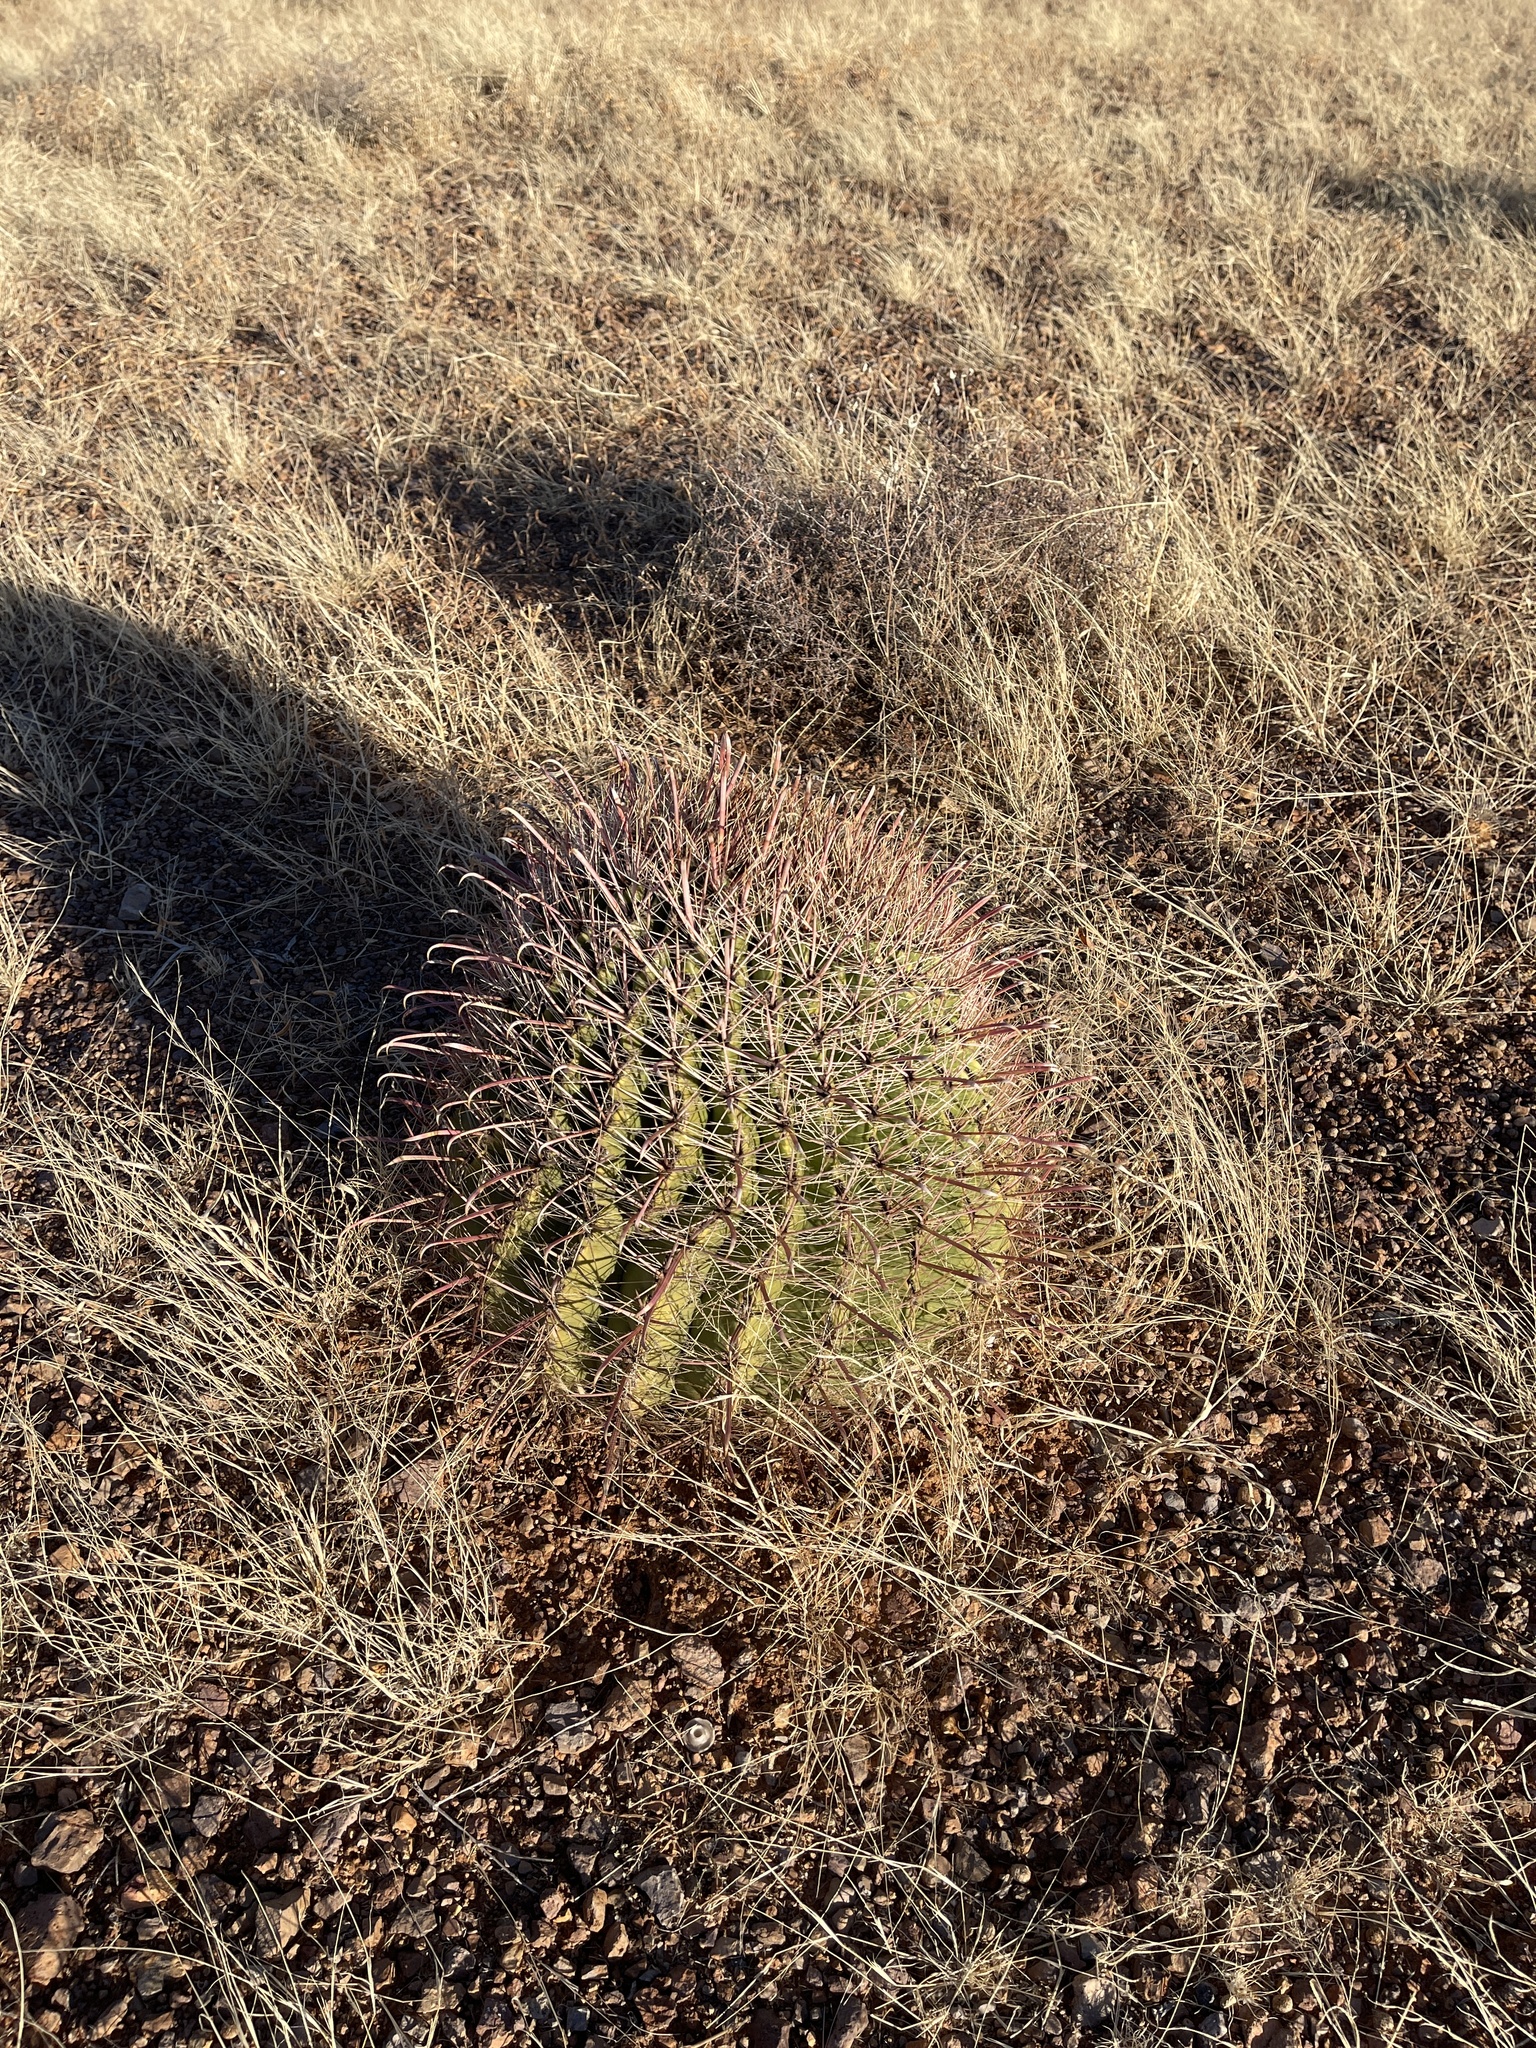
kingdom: Plantae
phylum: Tracheophyta
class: Magnoliopsida
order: Caryophyllales
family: Cactaceae
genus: Ferocactus
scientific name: Ferocactus wislizeni
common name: Candy barrel cactus
